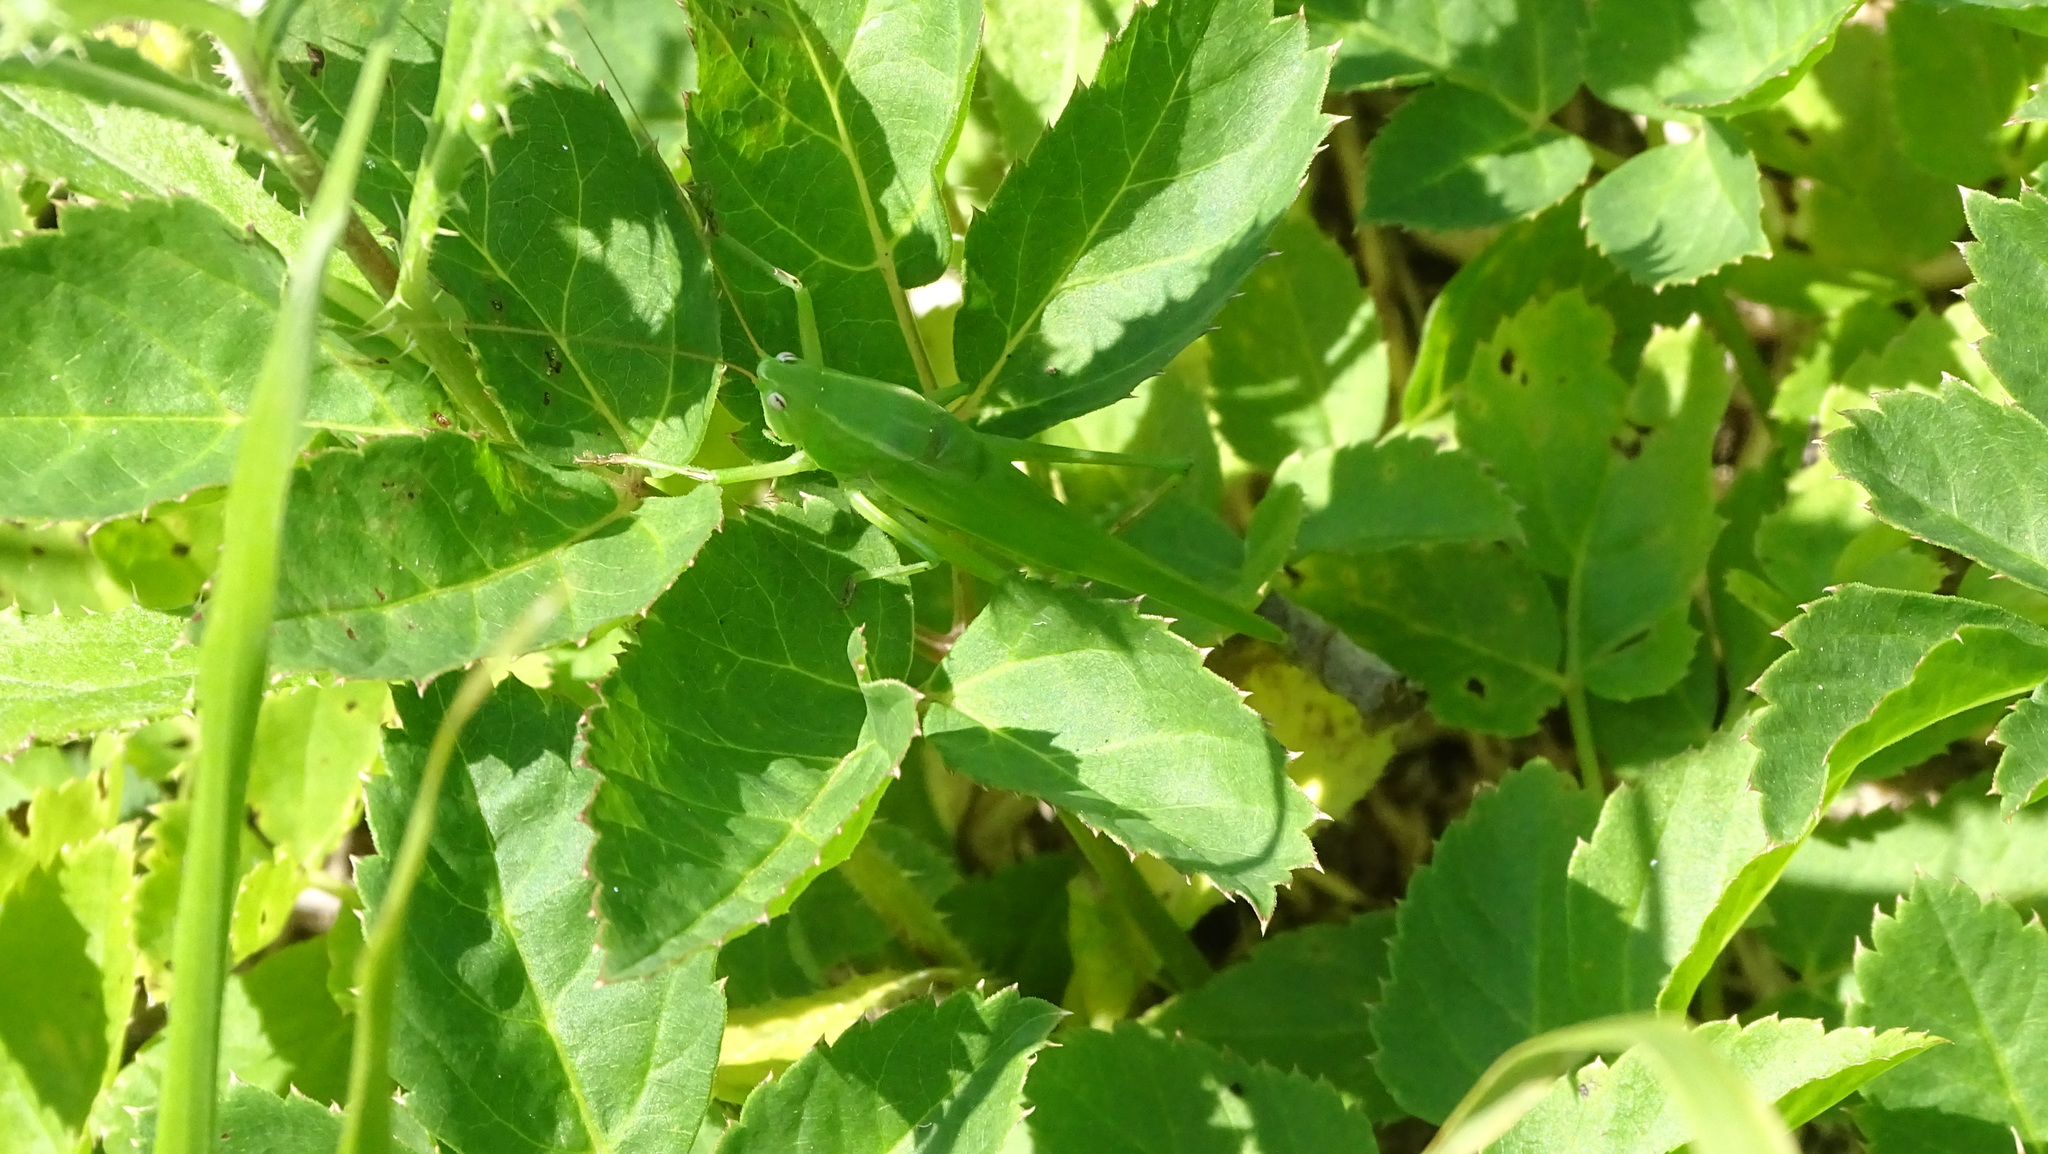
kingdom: Animalia
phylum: Arthropoda
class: Insecta
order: Orthoptera
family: Tettigoniidae
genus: Ruspolia
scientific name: Ruspolia nitidula
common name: Large conehead
